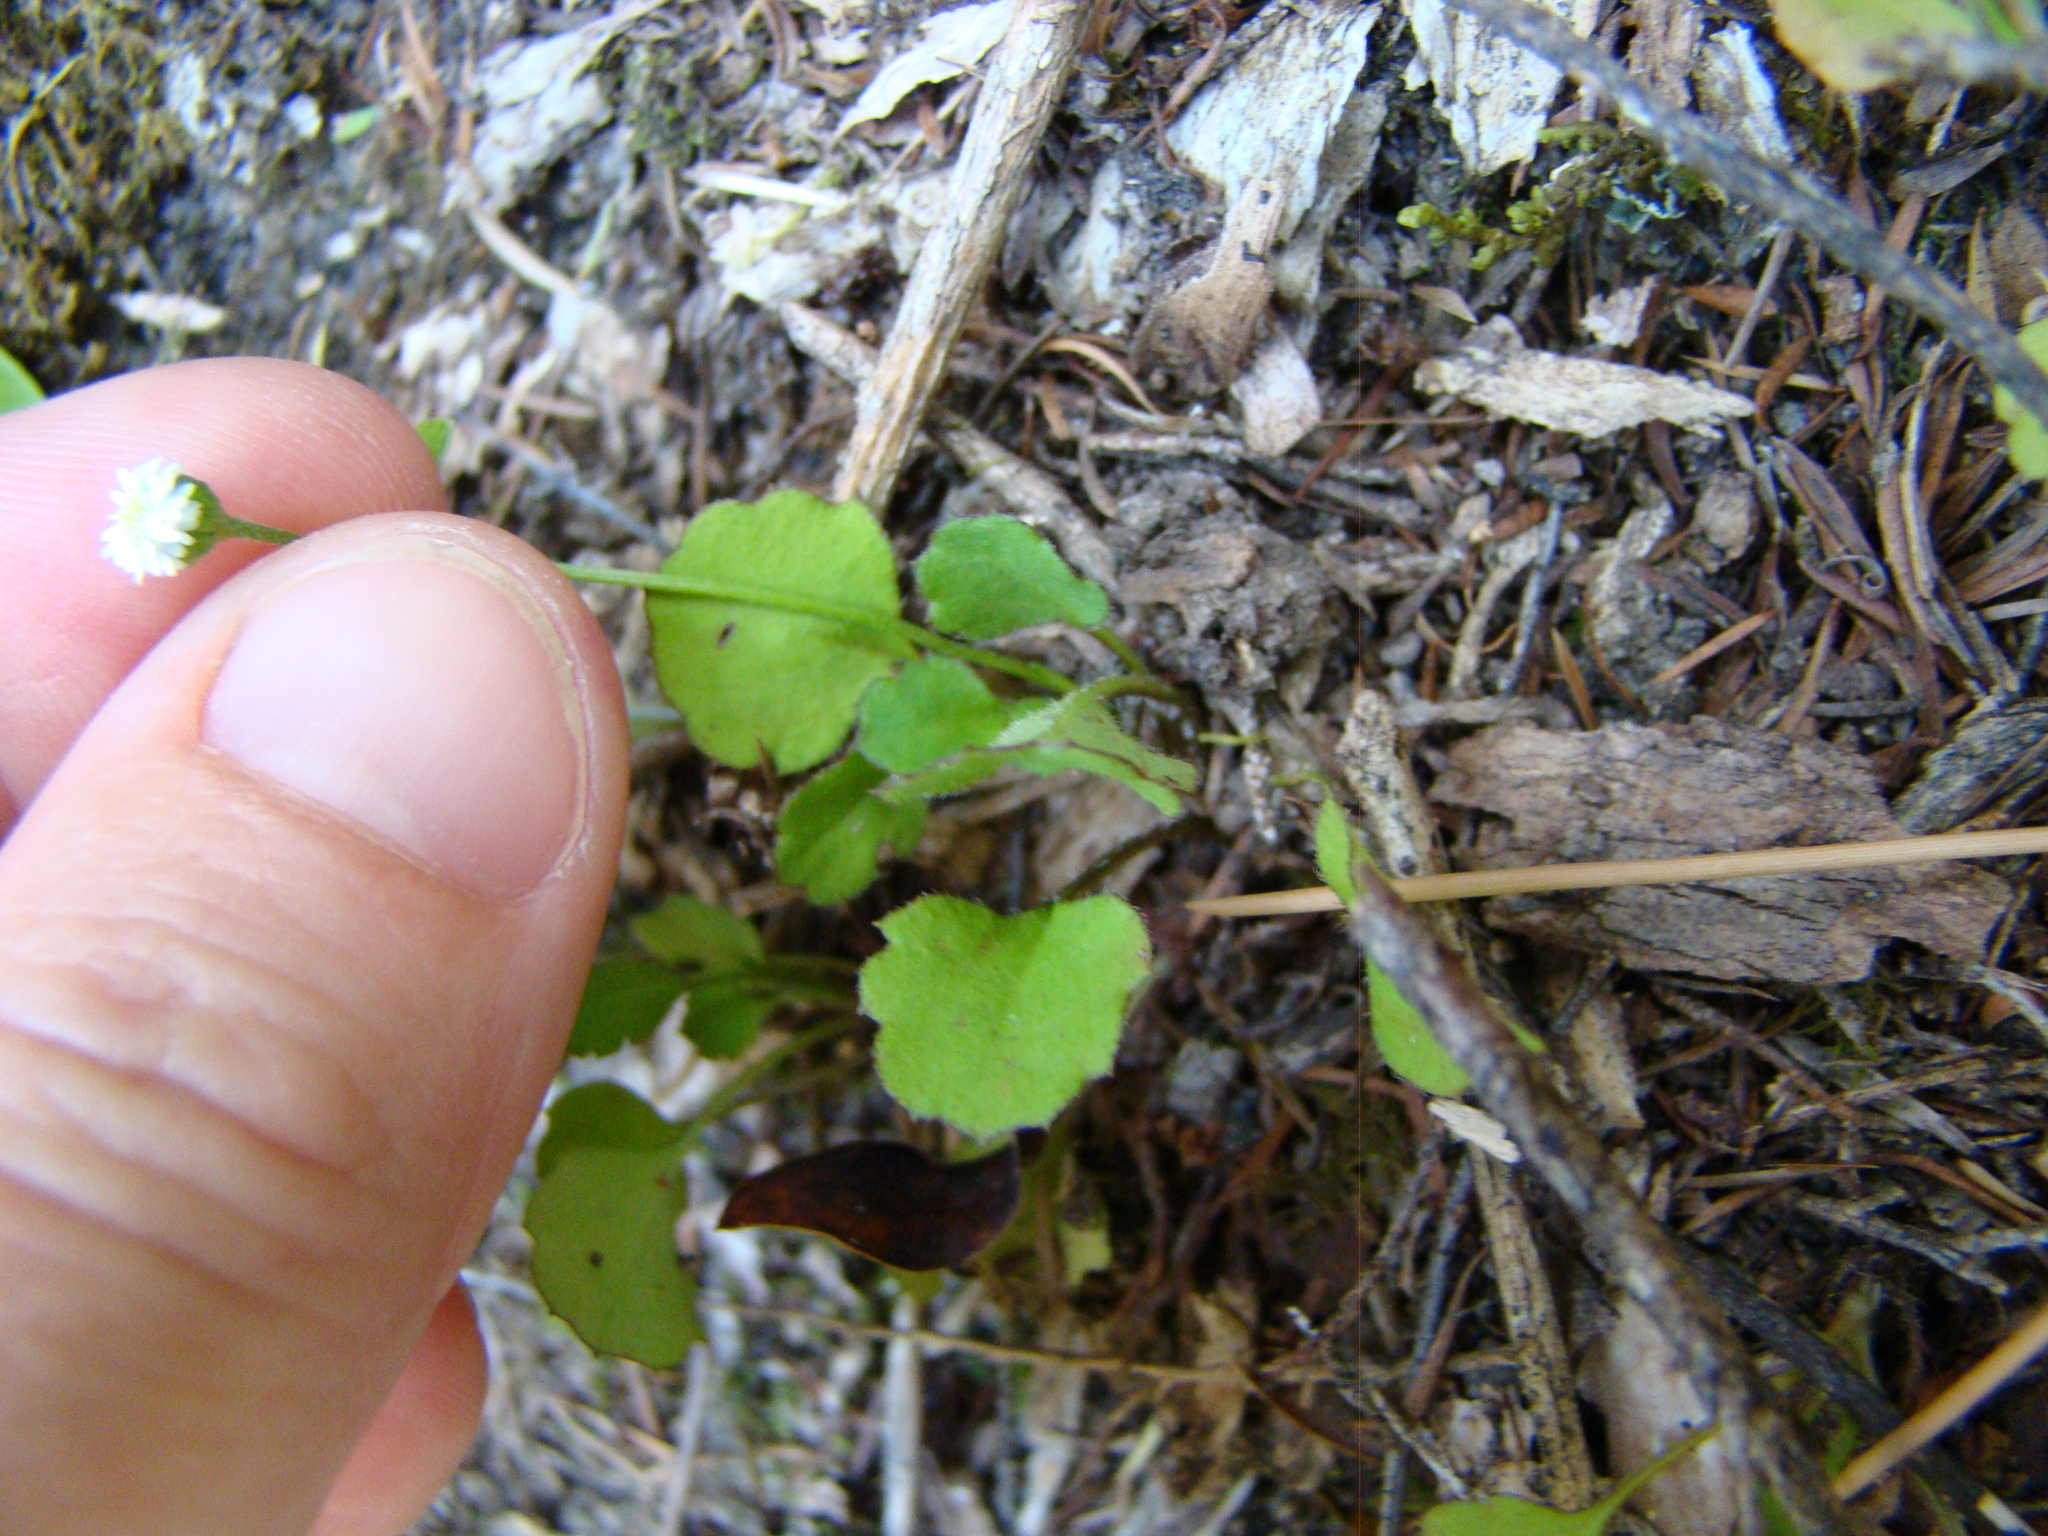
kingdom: Plantae
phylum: Tracheophyta
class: Magnoliopsida
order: Asterales
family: Asteraceae
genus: Lagenophora
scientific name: Lagenophora strangulata
